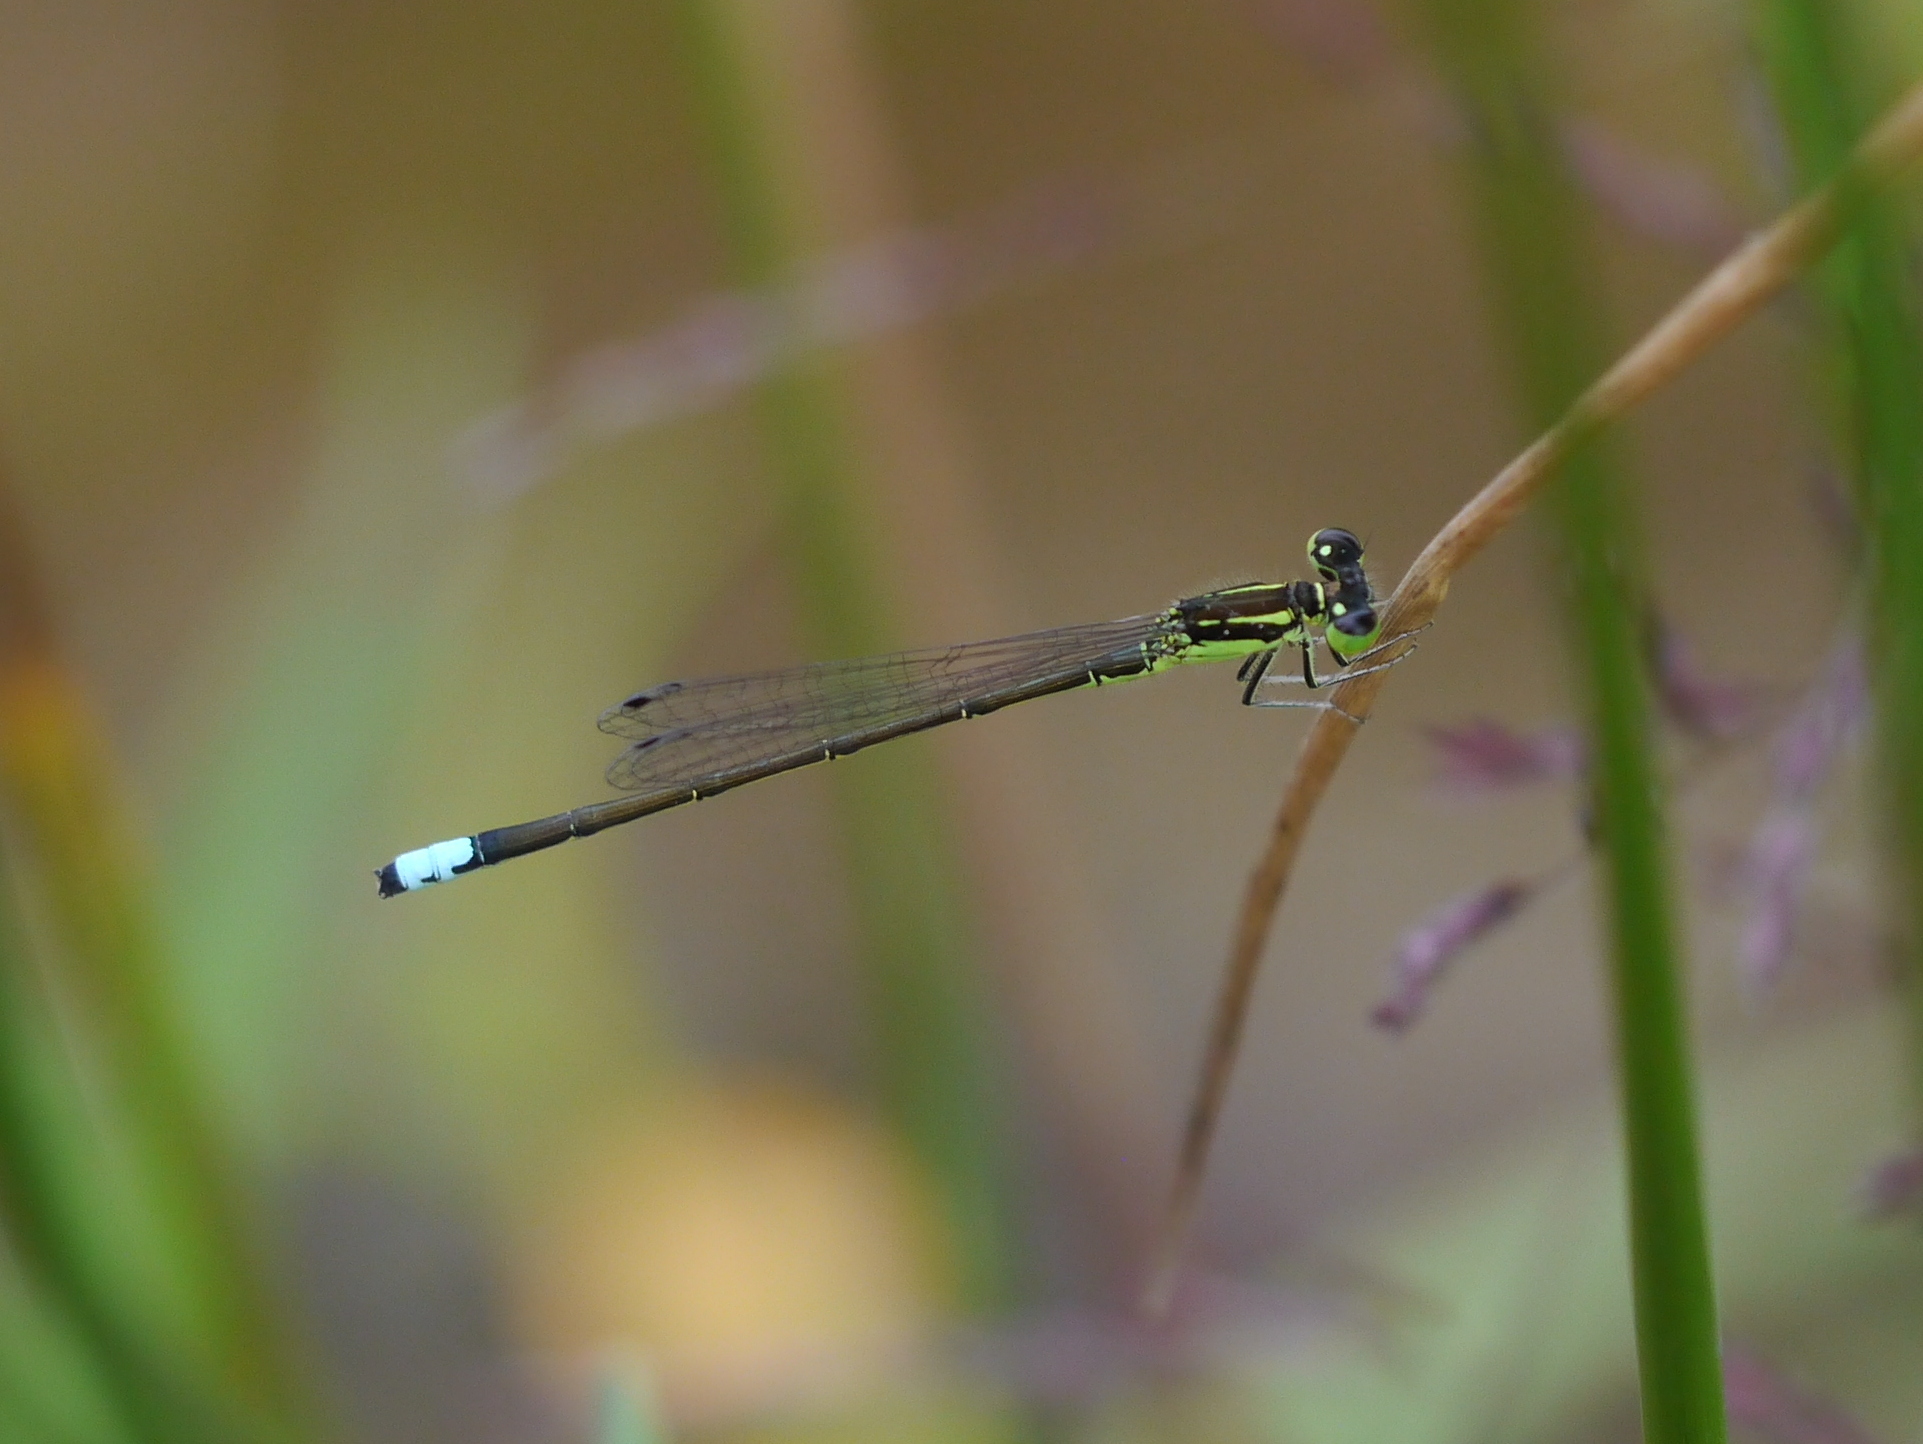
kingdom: Animalia
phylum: Arthropoda
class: Insecta
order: Odonata
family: Coenagrionidae
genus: Ischnura
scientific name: Ischnura verticalis
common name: Eastern forktail
